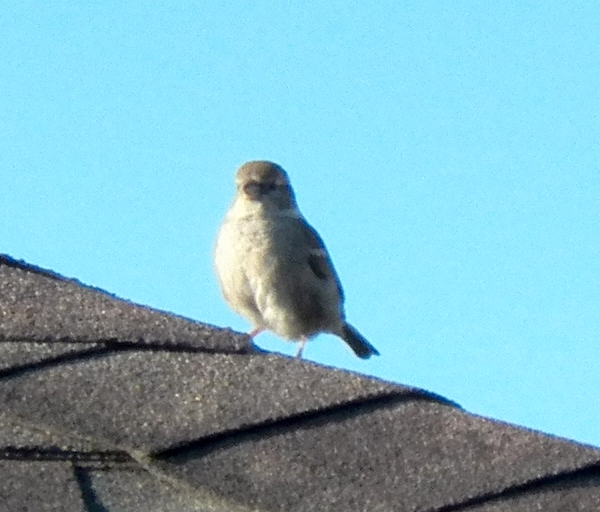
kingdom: Animalia
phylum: Chordata
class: Aves
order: Passeriformes
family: Mimidae
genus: Mimus
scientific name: Mimus polyglottos
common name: Northern mockingbird
